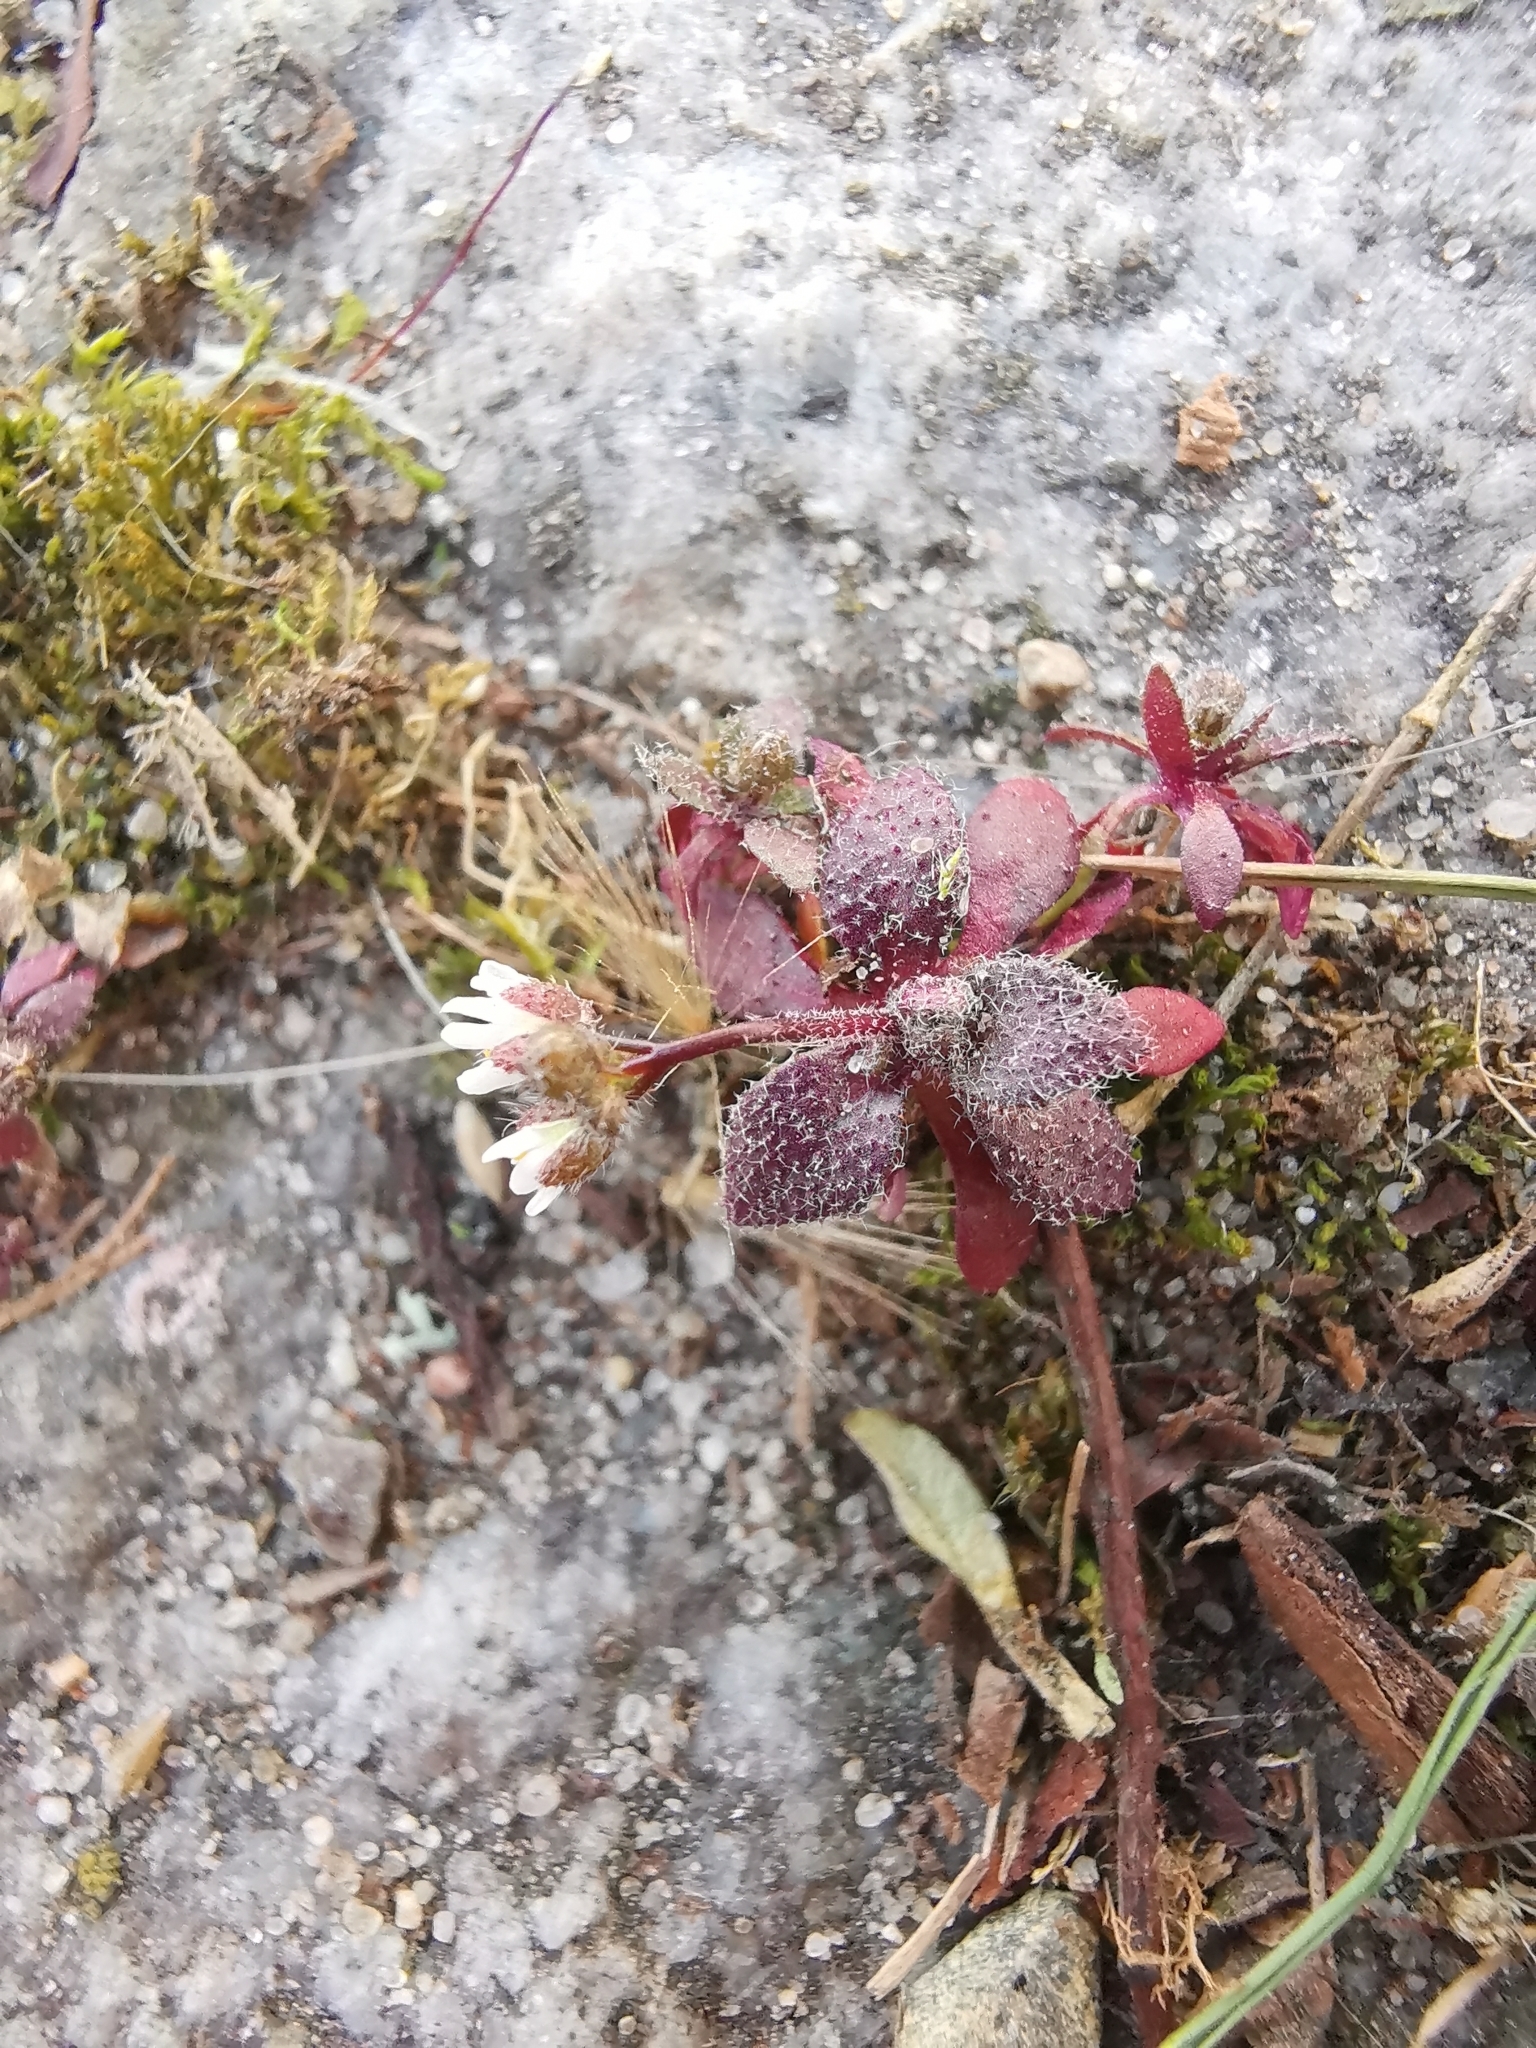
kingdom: Plantae
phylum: Tracheophyta
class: Magnoliopsida
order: Brassicales
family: Brassicaceae
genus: Draba
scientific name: Draba verna
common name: Spring draba
